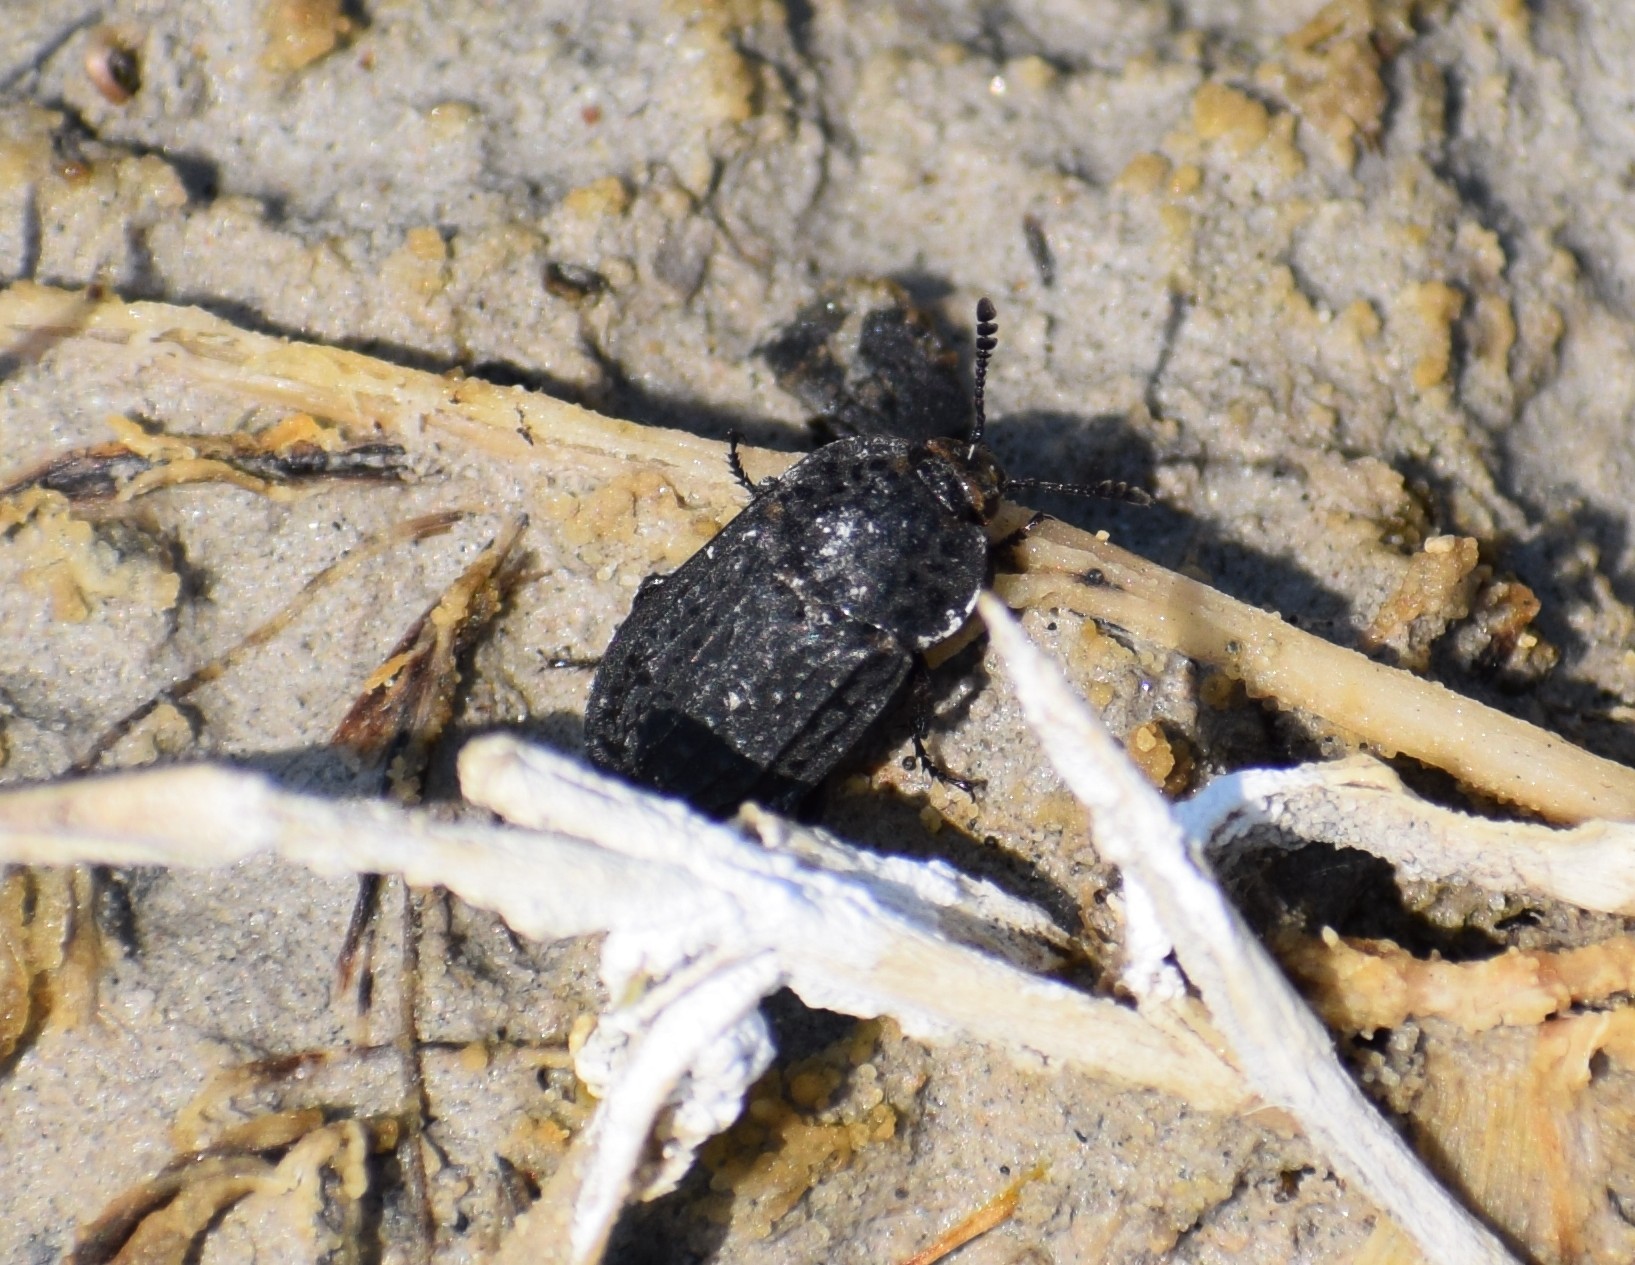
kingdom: Animalia
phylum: Arthropoda
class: Insecta
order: Coleoptera
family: Staphylinidae
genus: Thanatophilus
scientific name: Thanatophilus rugosus
